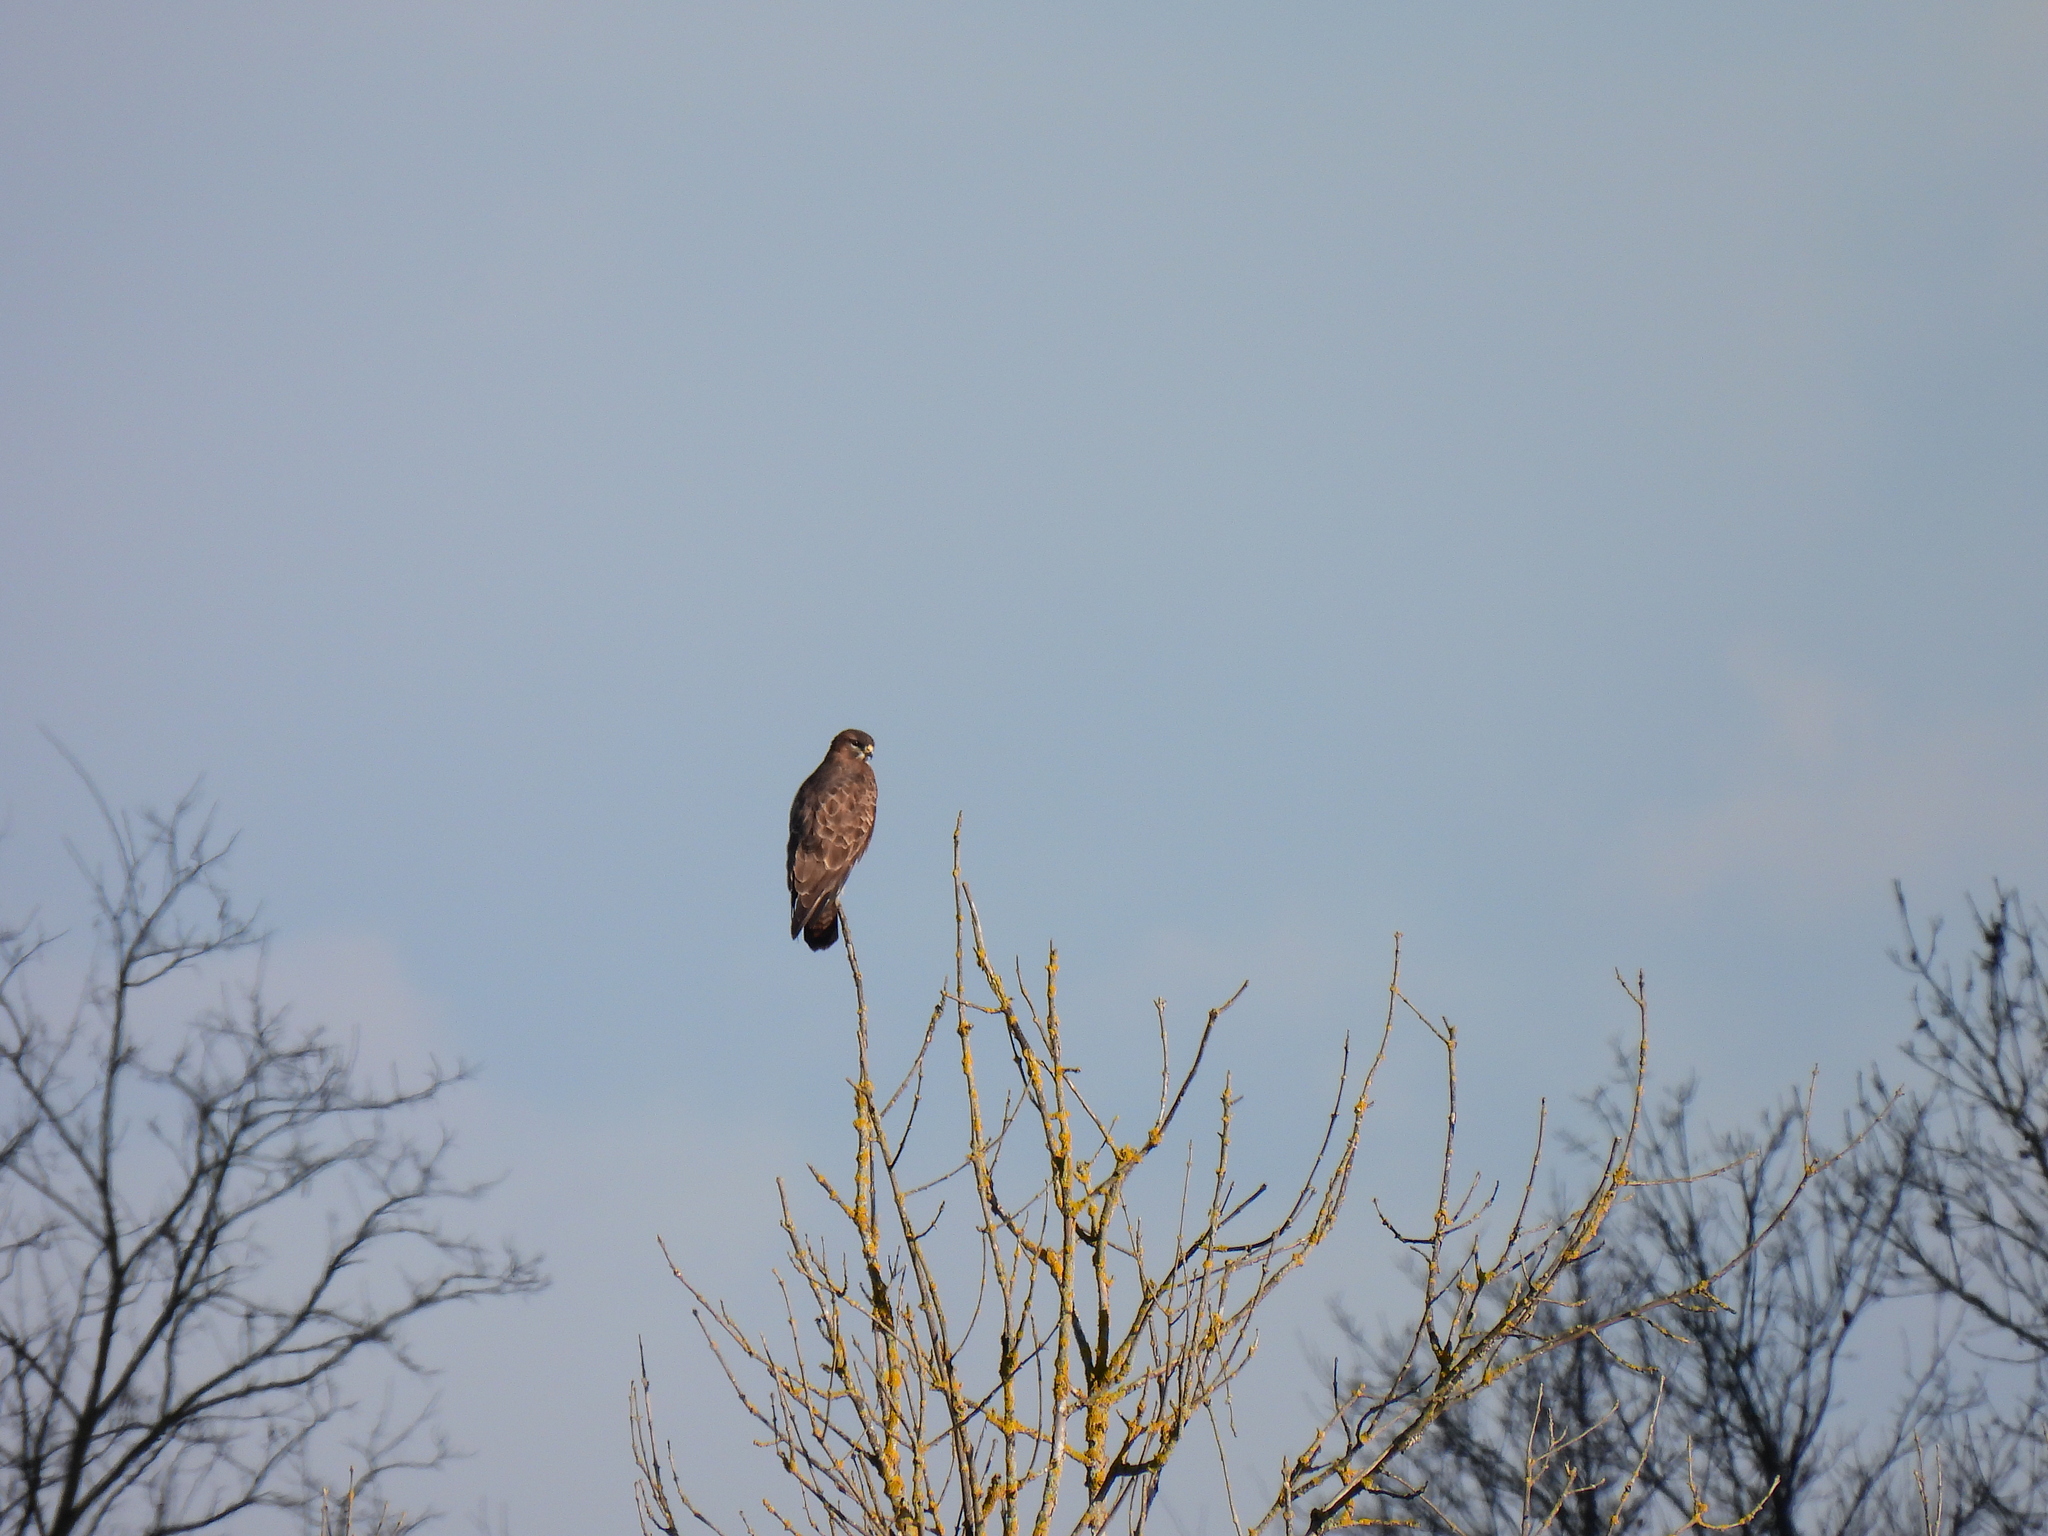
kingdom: Animalia
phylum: Chordata
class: Aves
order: Accipitriformes
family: Accipitridae
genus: Buteo
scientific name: Buteo buteo
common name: Common buzzard
